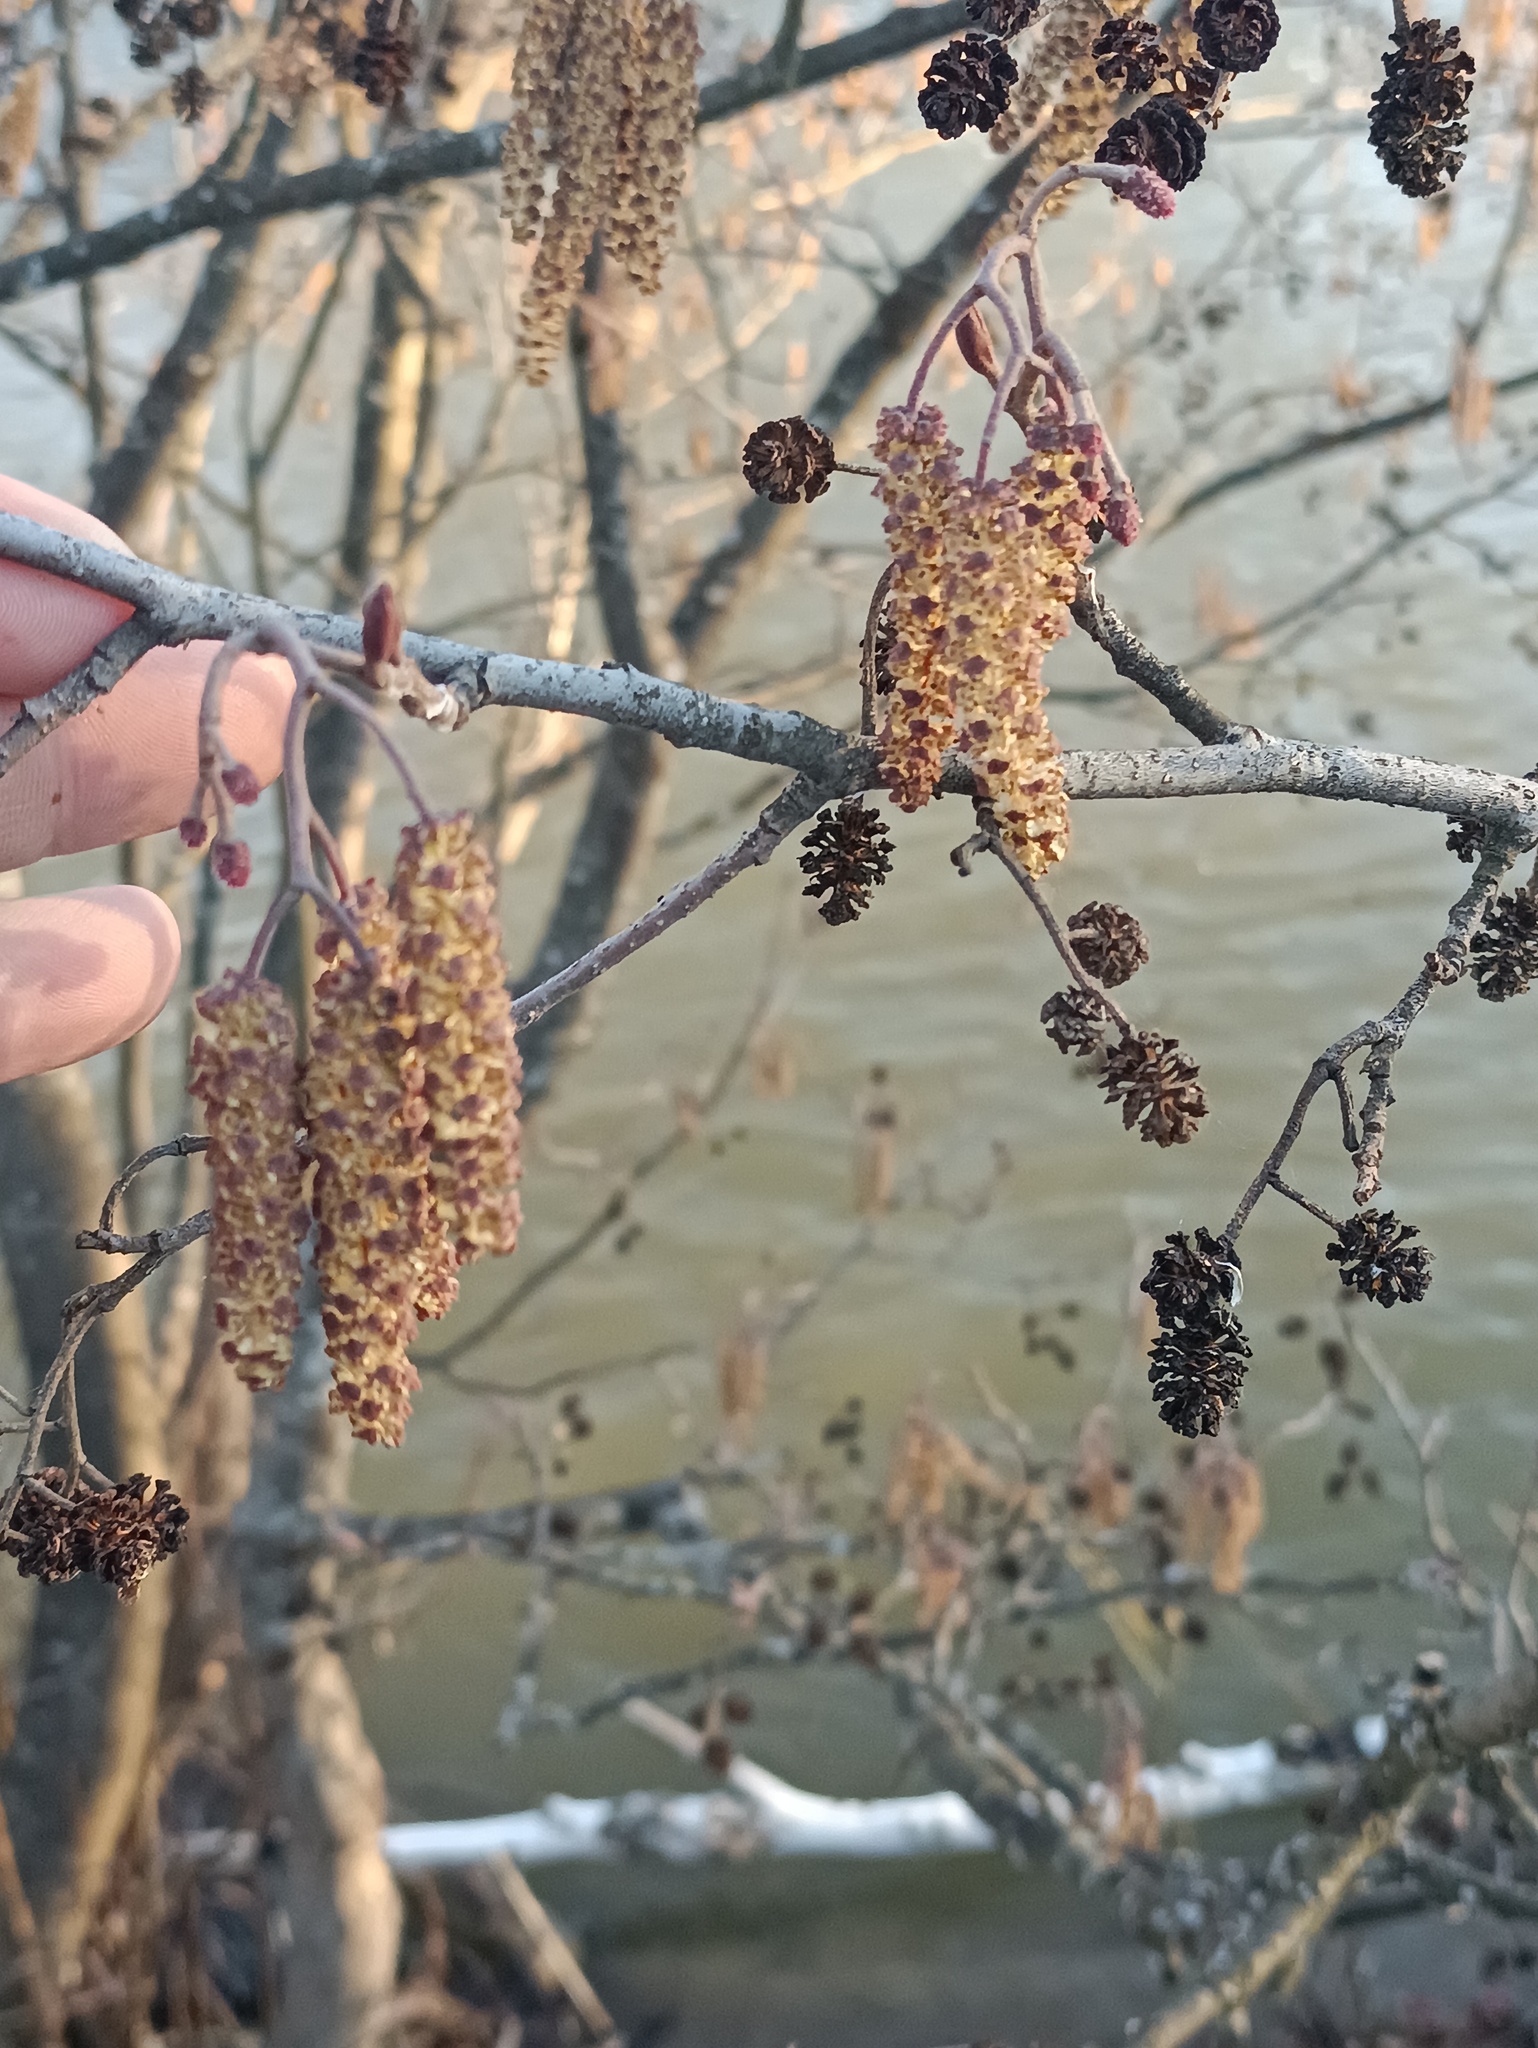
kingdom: Plantae
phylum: Tracheophyta
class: Magnoliopsida
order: Fagales
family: Betulaceae
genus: Alnus
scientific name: Alnus glutinosa
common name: Black alder
